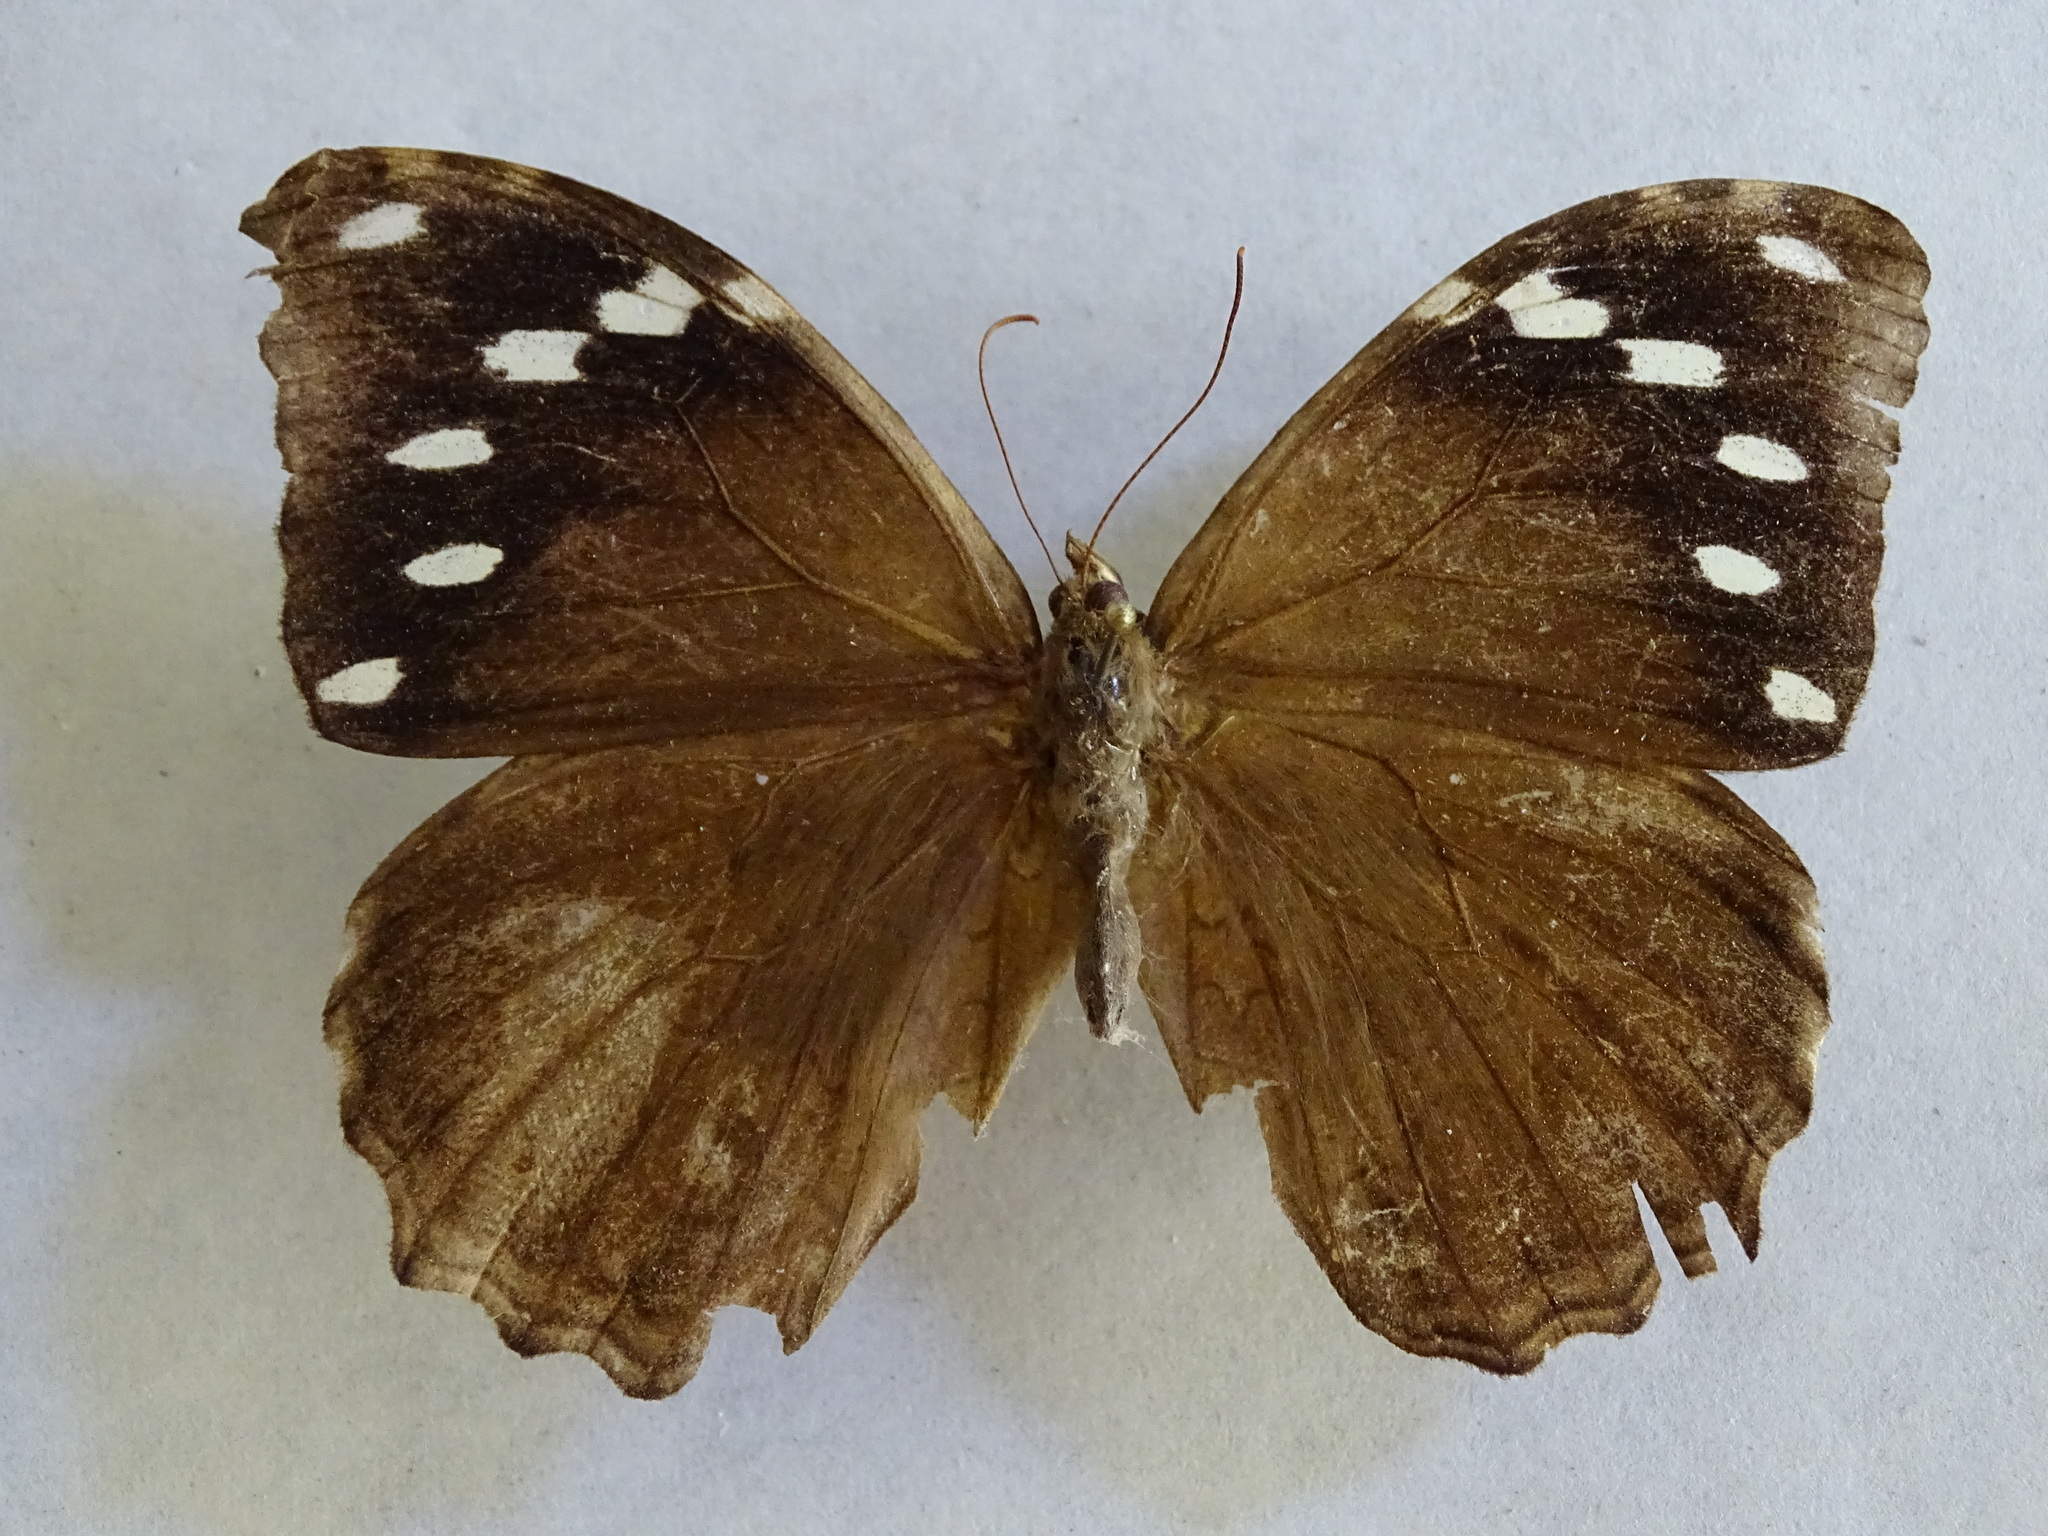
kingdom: Animalia
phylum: Arthropoda
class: Insecta
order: Lepidoptera
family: Nymphalidae
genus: Manataria
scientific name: Manataria maculata
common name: White-spotted satyr
